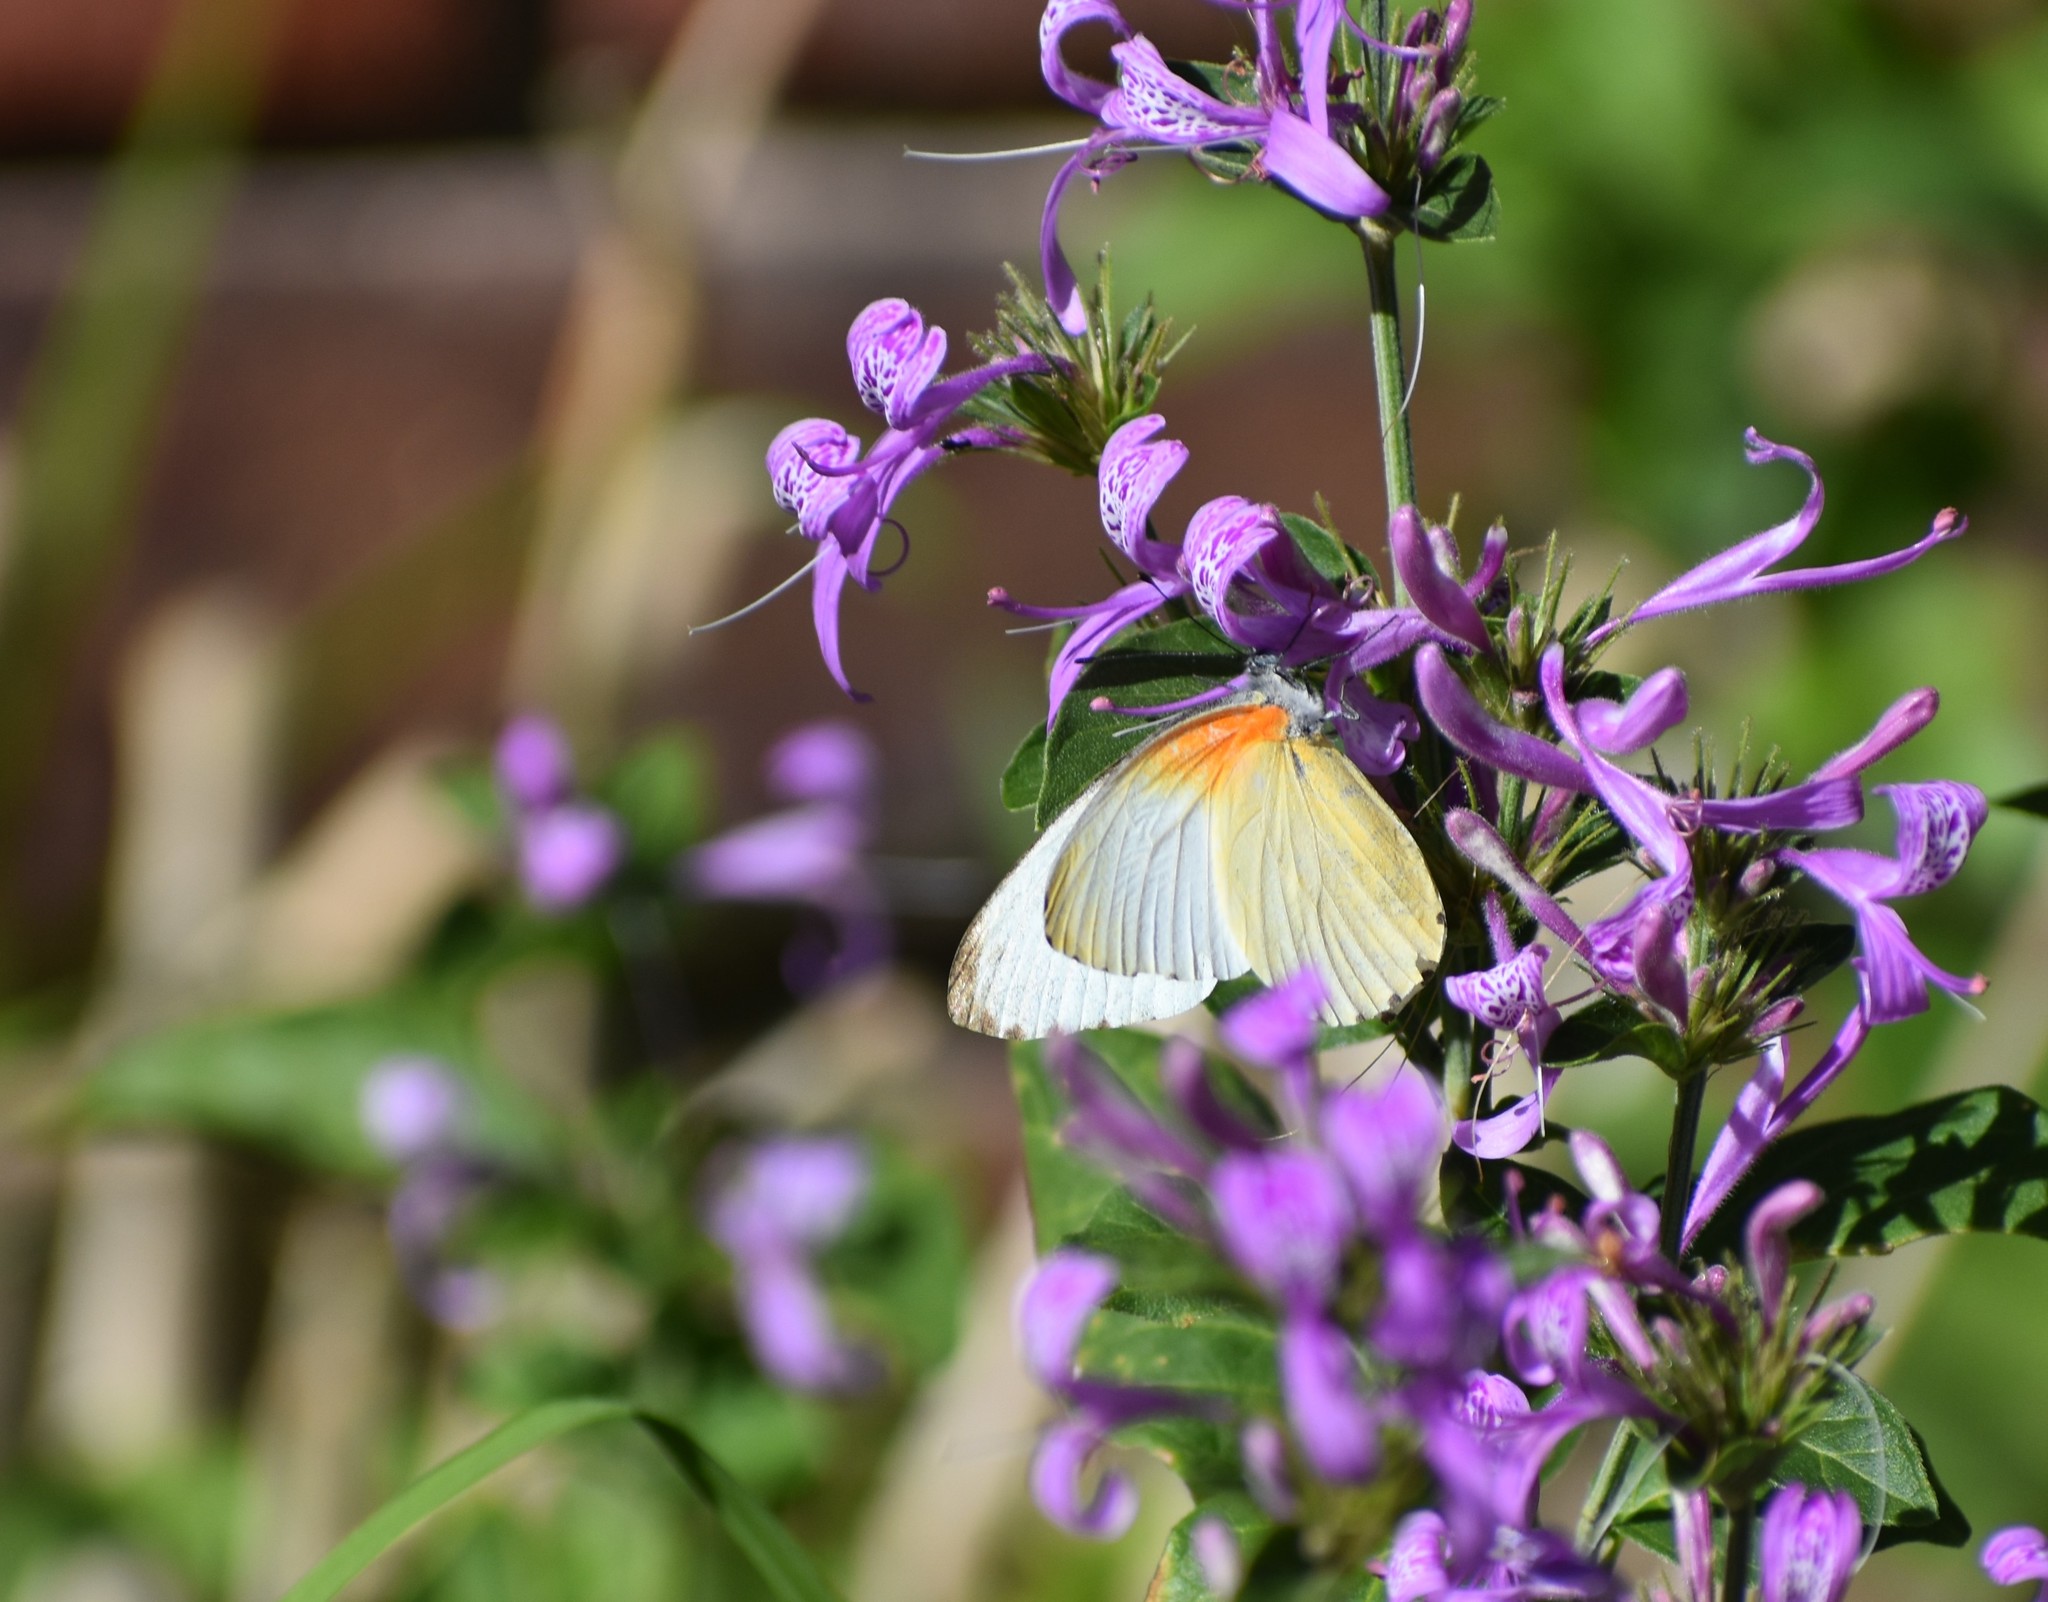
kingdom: Animalia
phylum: Arthropoda
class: Insecta
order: Lepidoptera
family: Pieridae
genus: Mylothris
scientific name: Mylothris agathina
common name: Eastern dotted border
